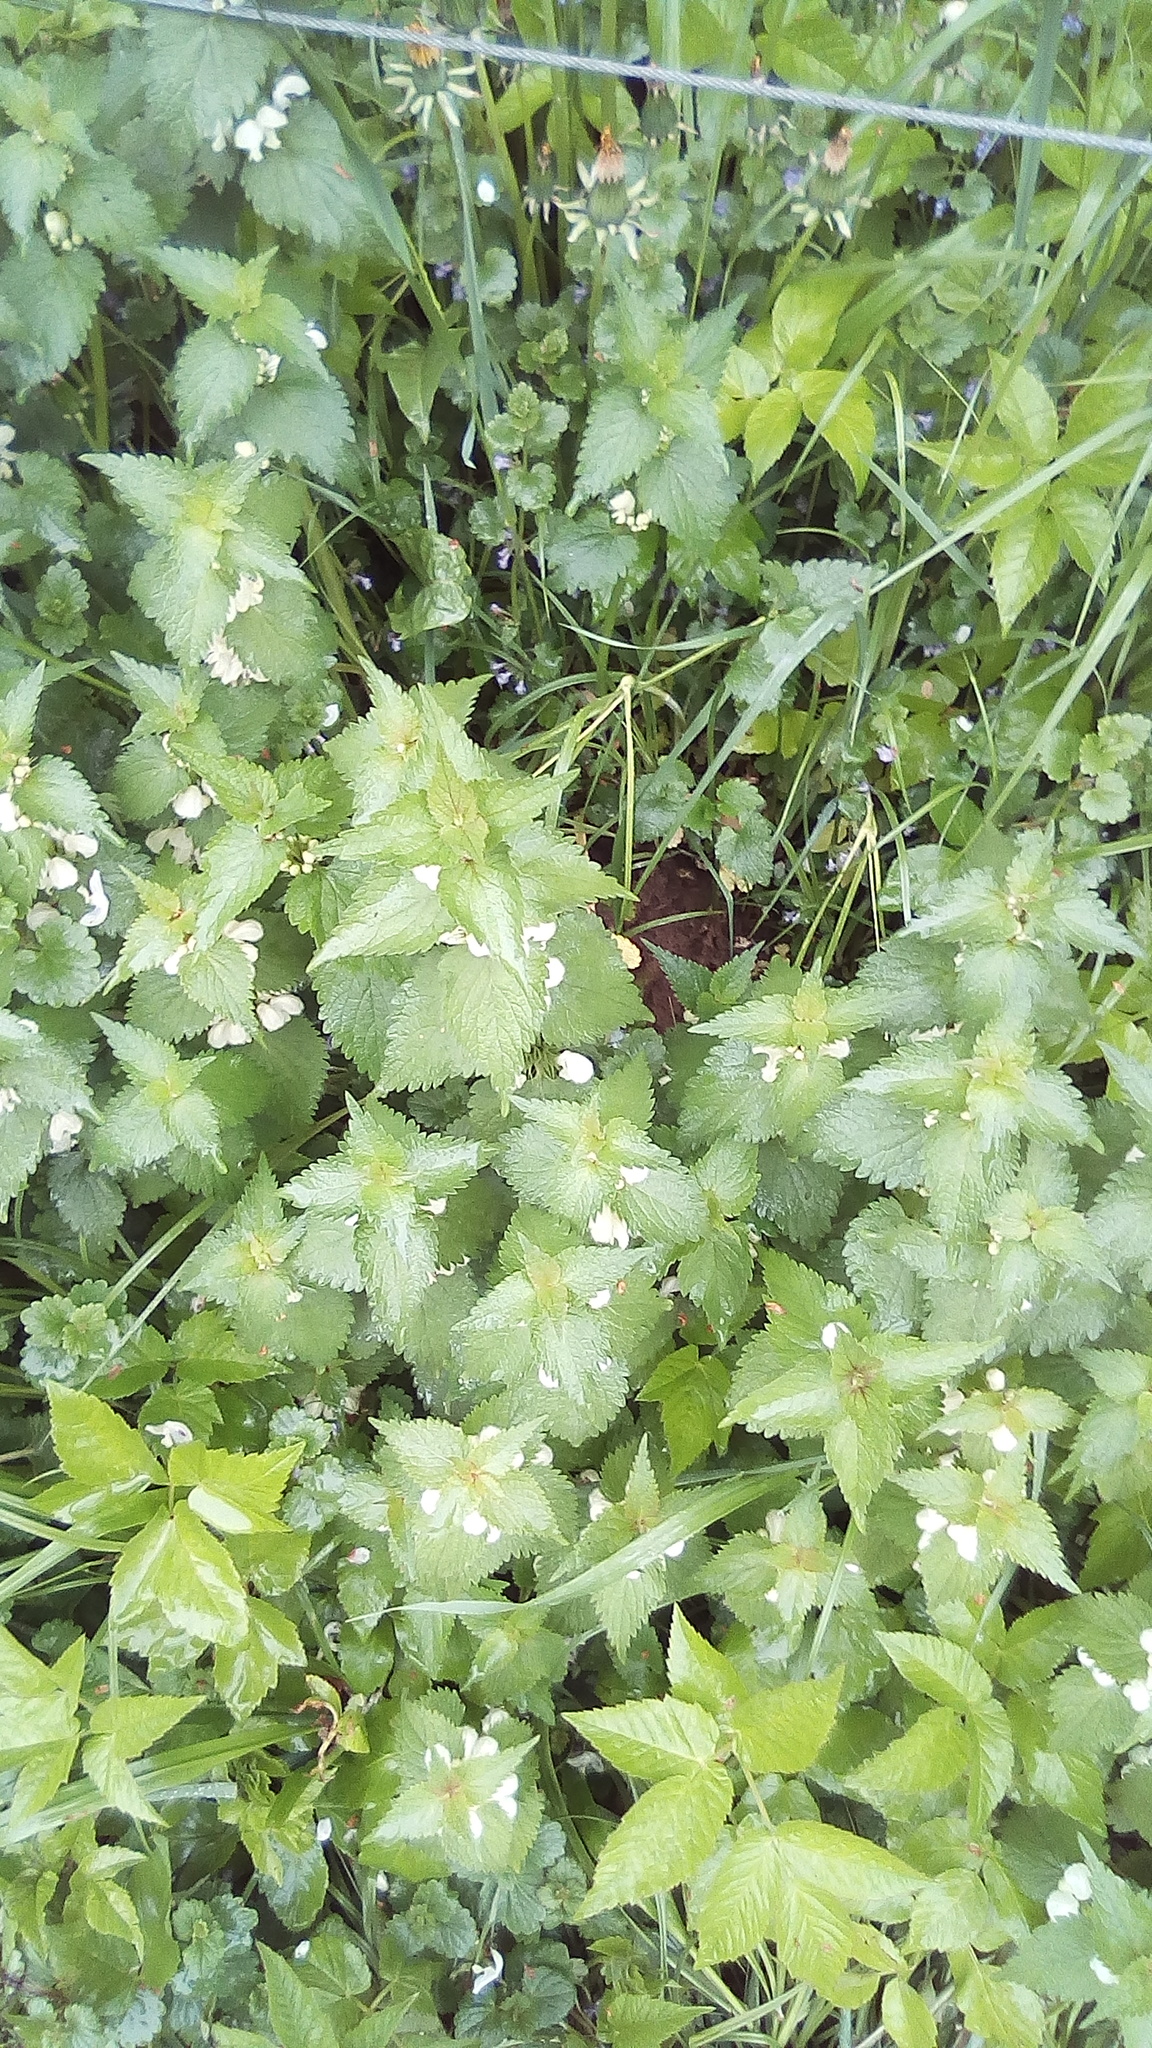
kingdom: Plantae
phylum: Tracheophyta
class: Magnoliopsida
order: Lamiales
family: Lamiaceae
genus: Lamium
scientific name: Lamium album
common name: White dead-nettle
